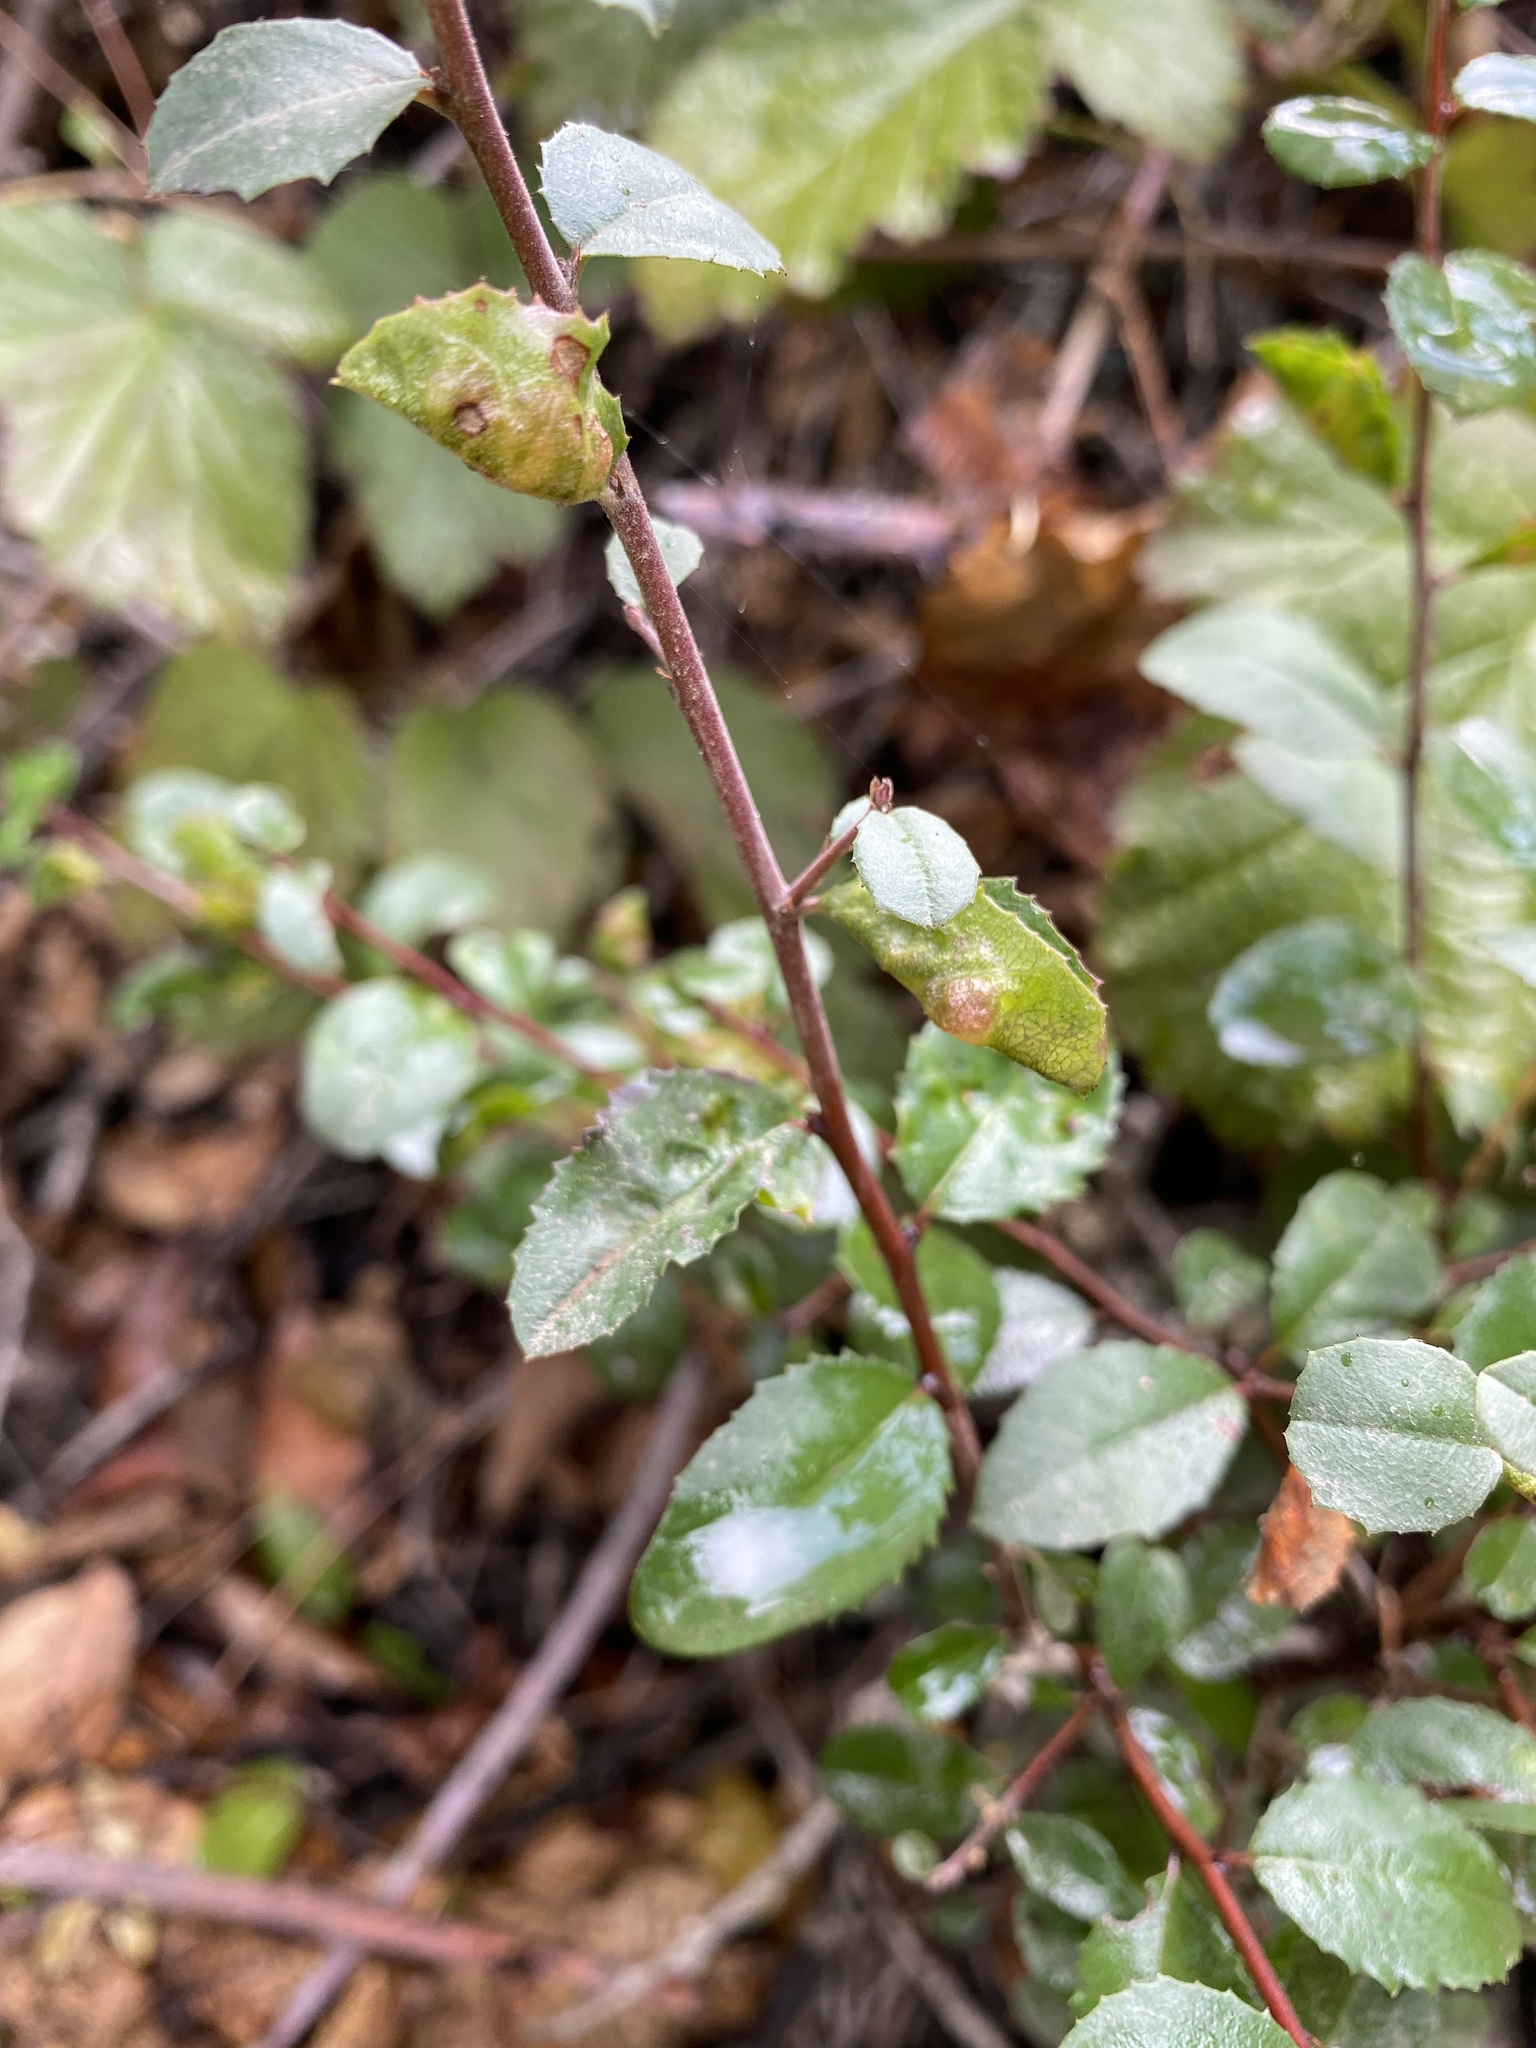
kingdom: Plantae
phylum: Tracheophyta
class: Magnoliopsida
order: Rosales
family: Rhamnaceae
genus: Endotropis
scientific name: Endotropis crocea
